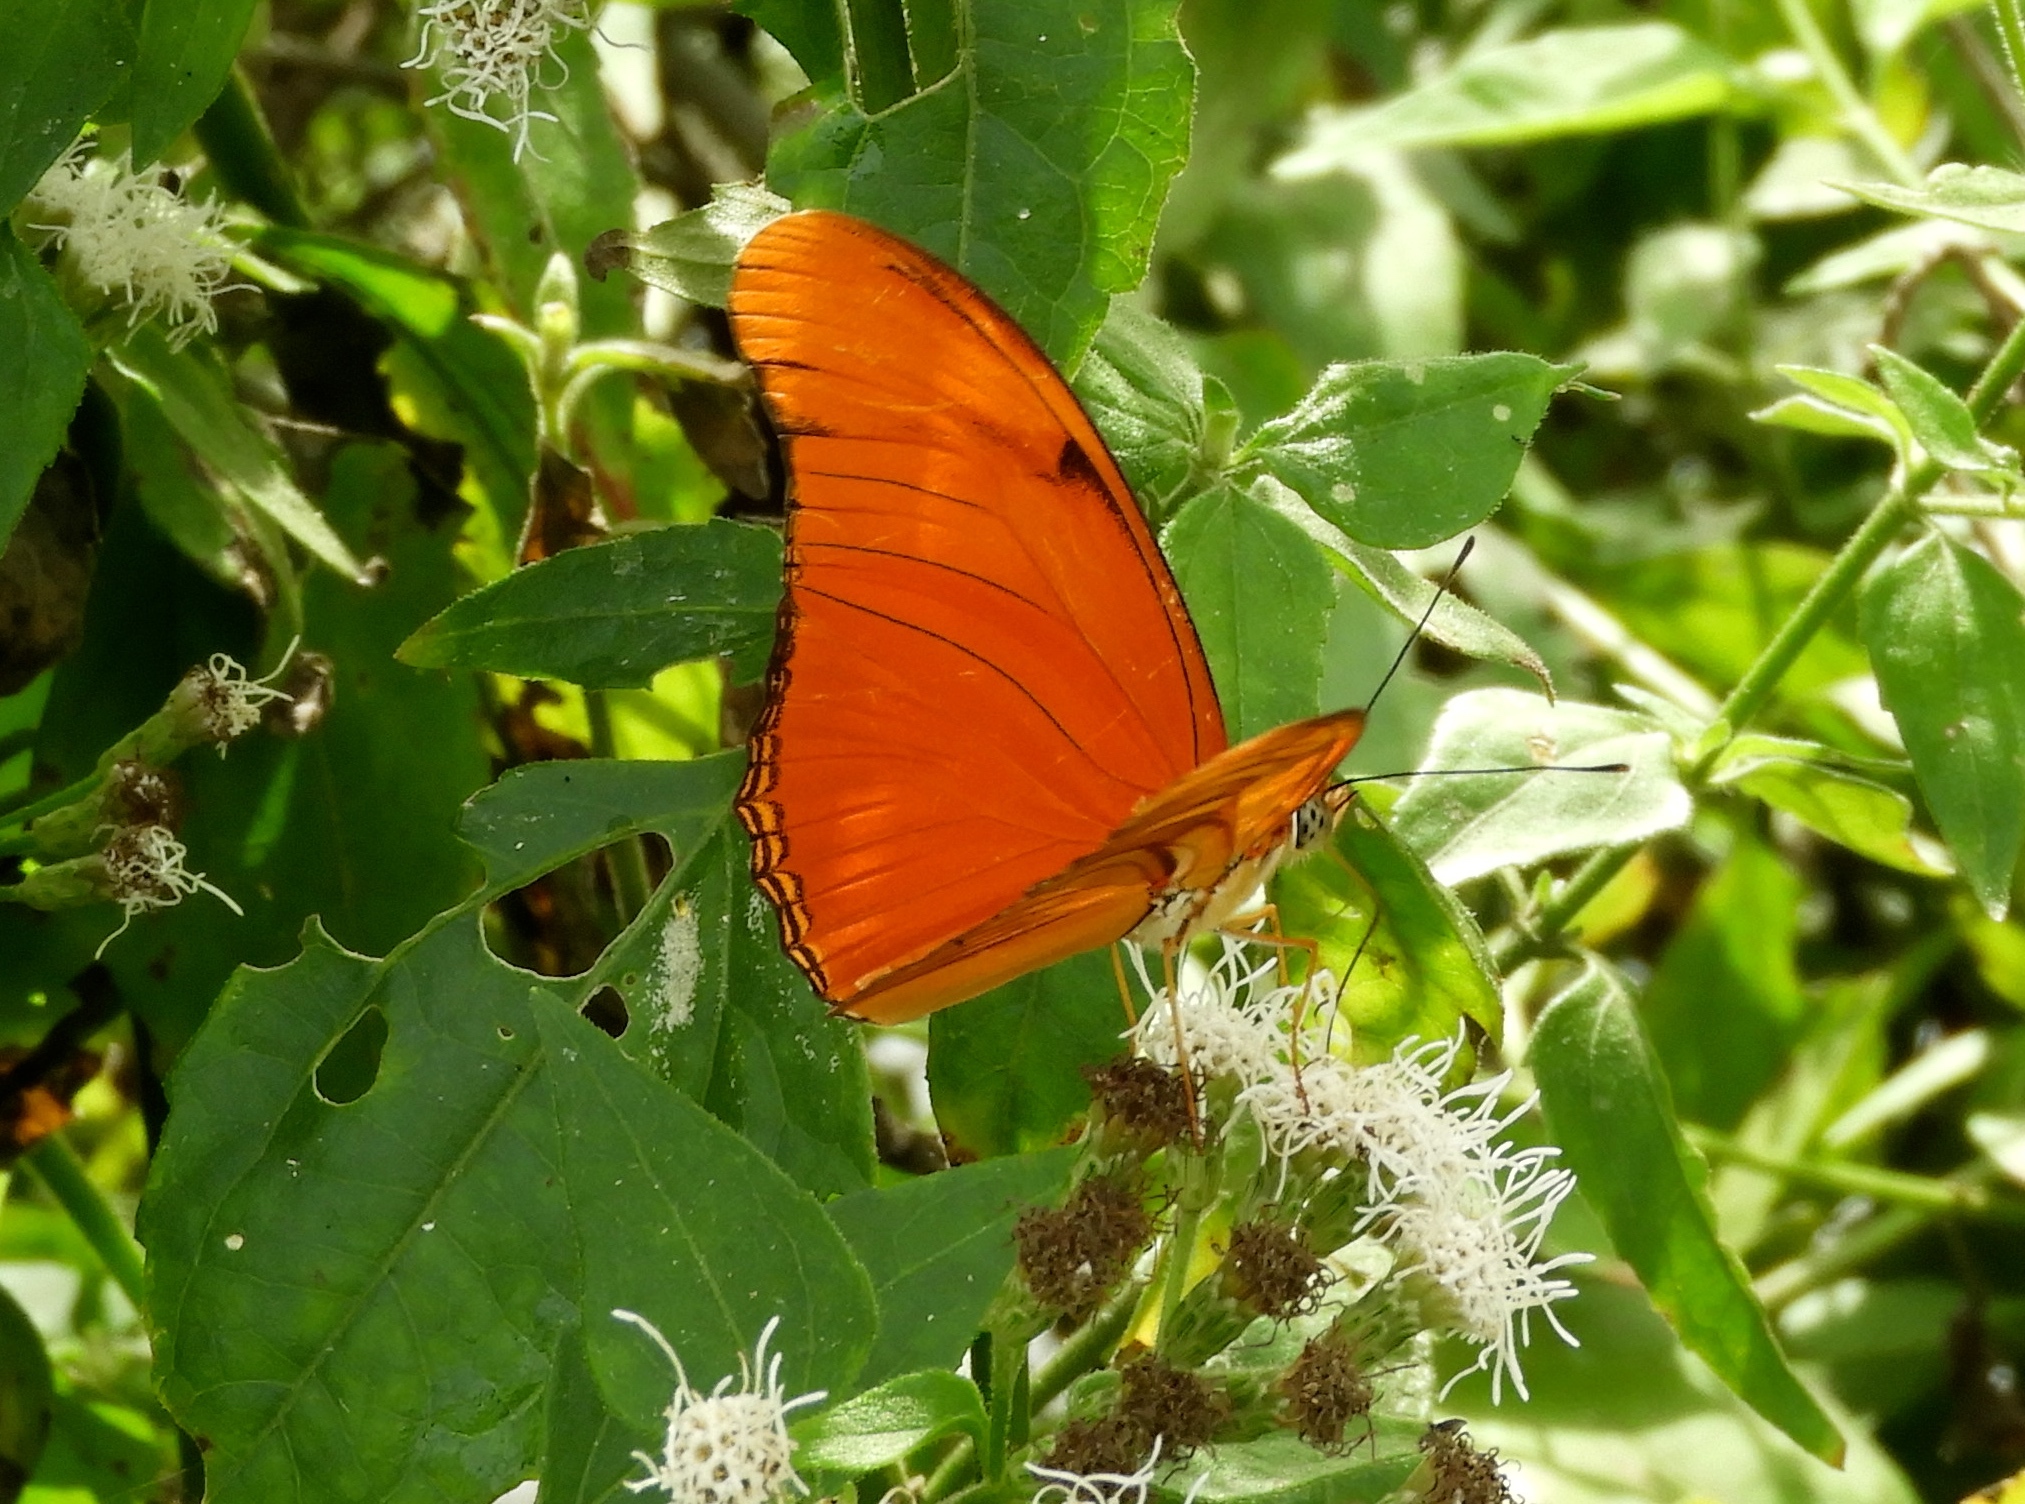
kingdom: Animalia
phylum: Arthropoda
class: Insecta
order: Lepidoptera
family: Nymphalidae
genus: Dryas
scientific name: Dryas iulia
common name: Flambeau
